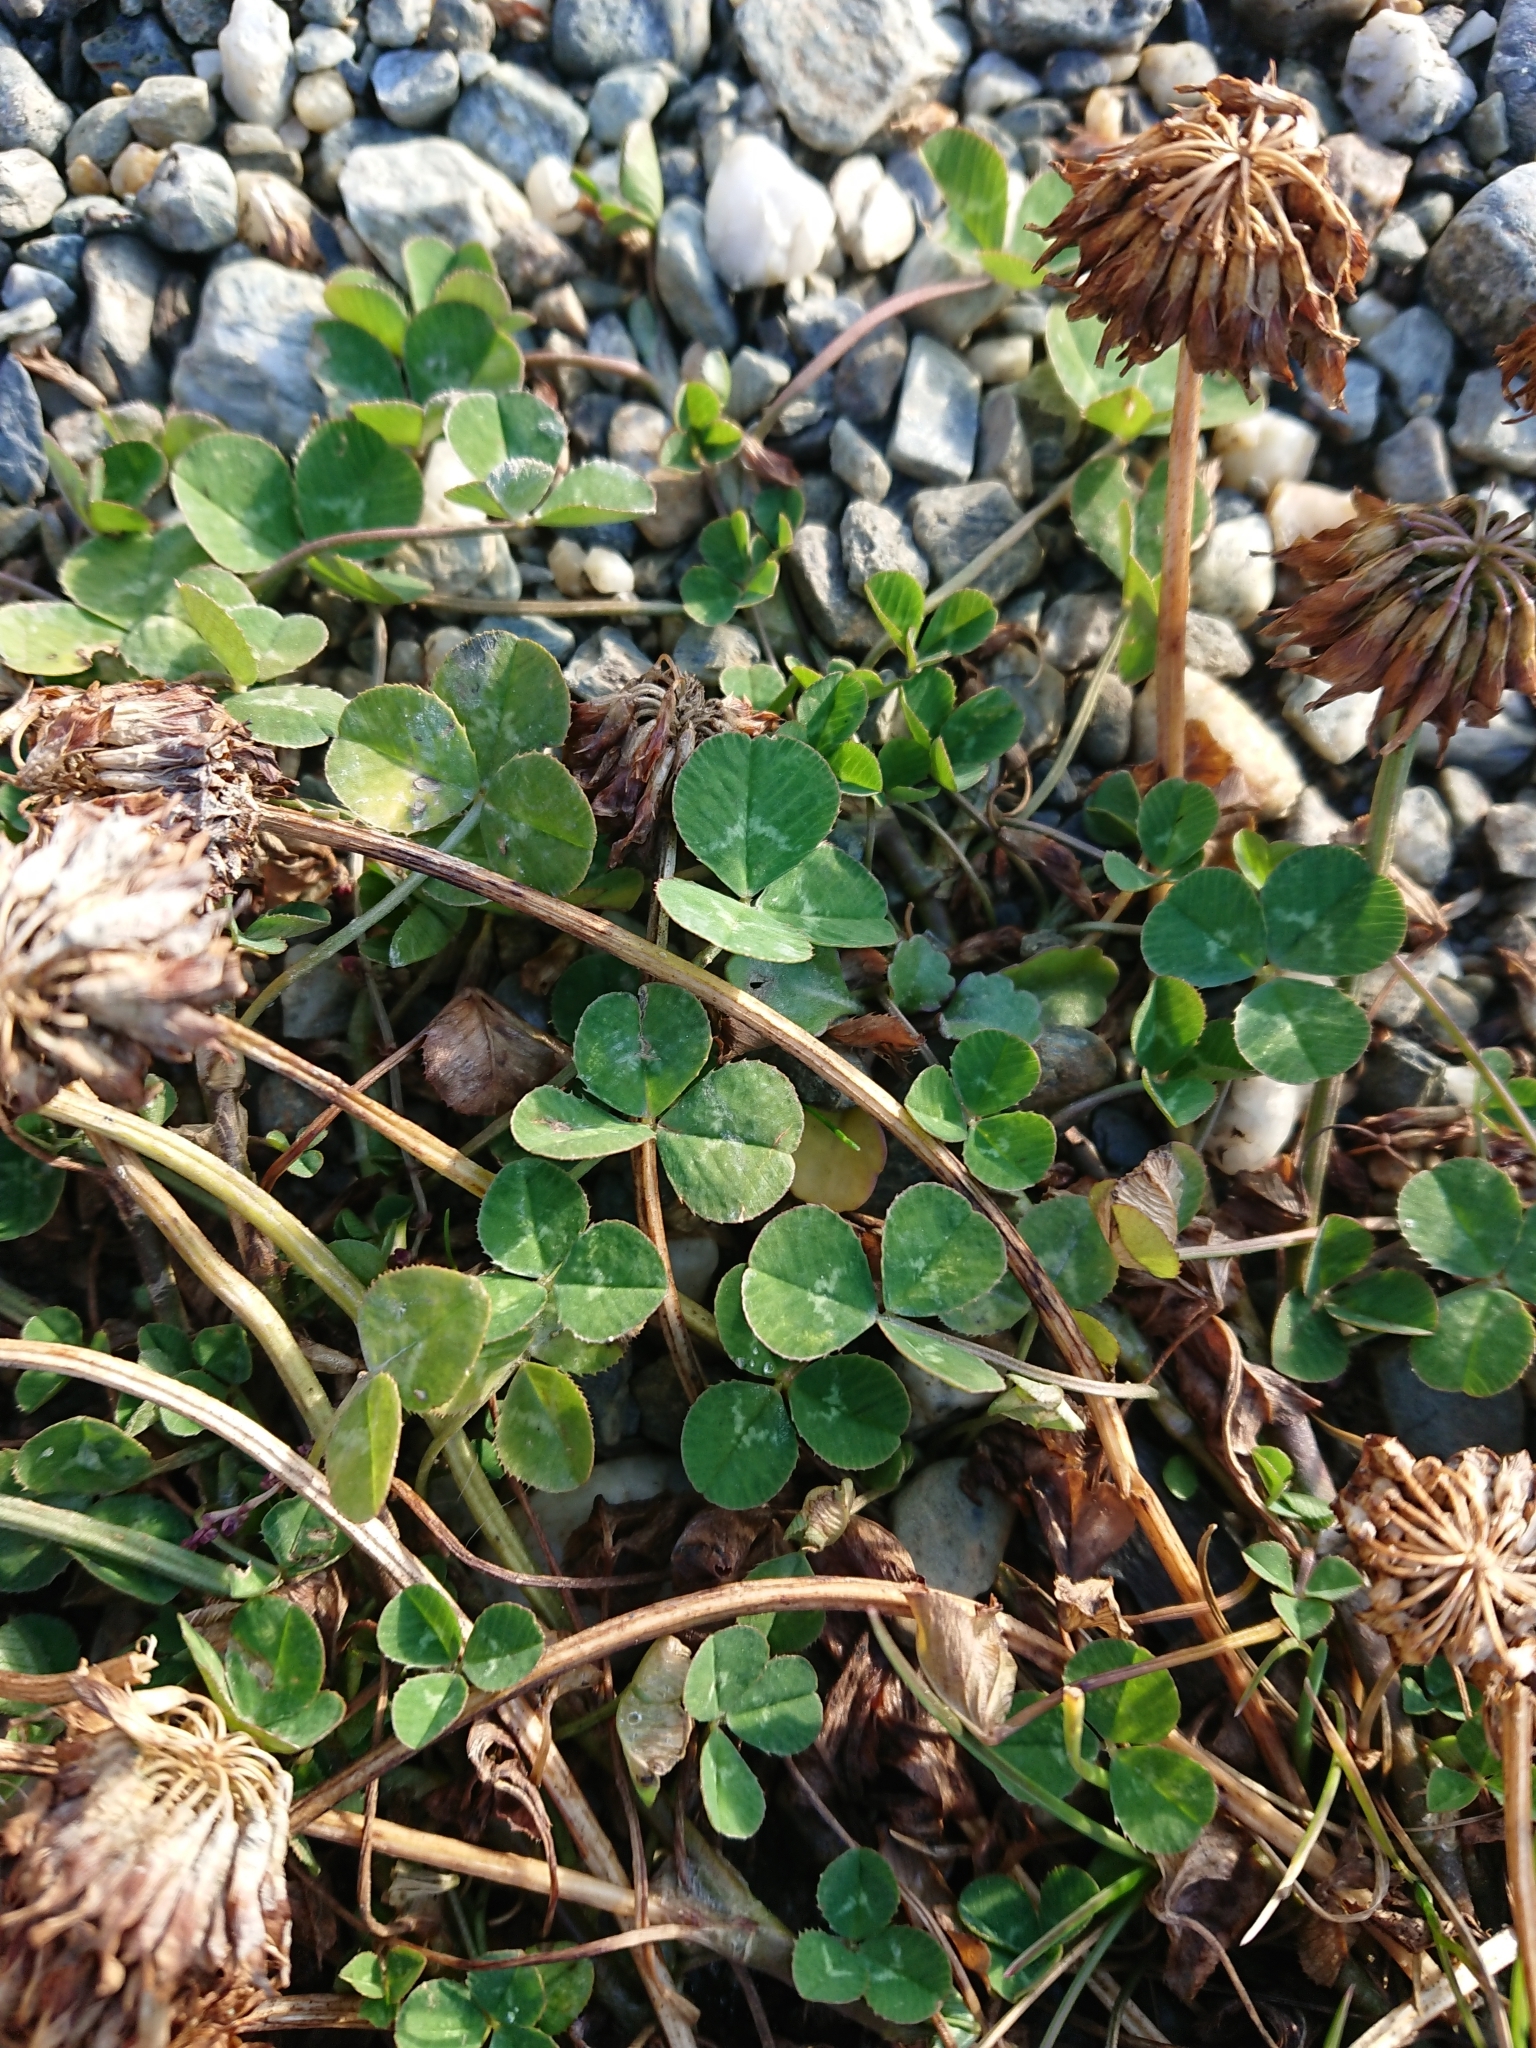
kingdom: Plantae
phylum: Tracheophyta
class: Magnoliopsida
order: Fabales
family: Fabaceae
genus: Trifolium
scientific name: Trifolium repens
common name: White clover
